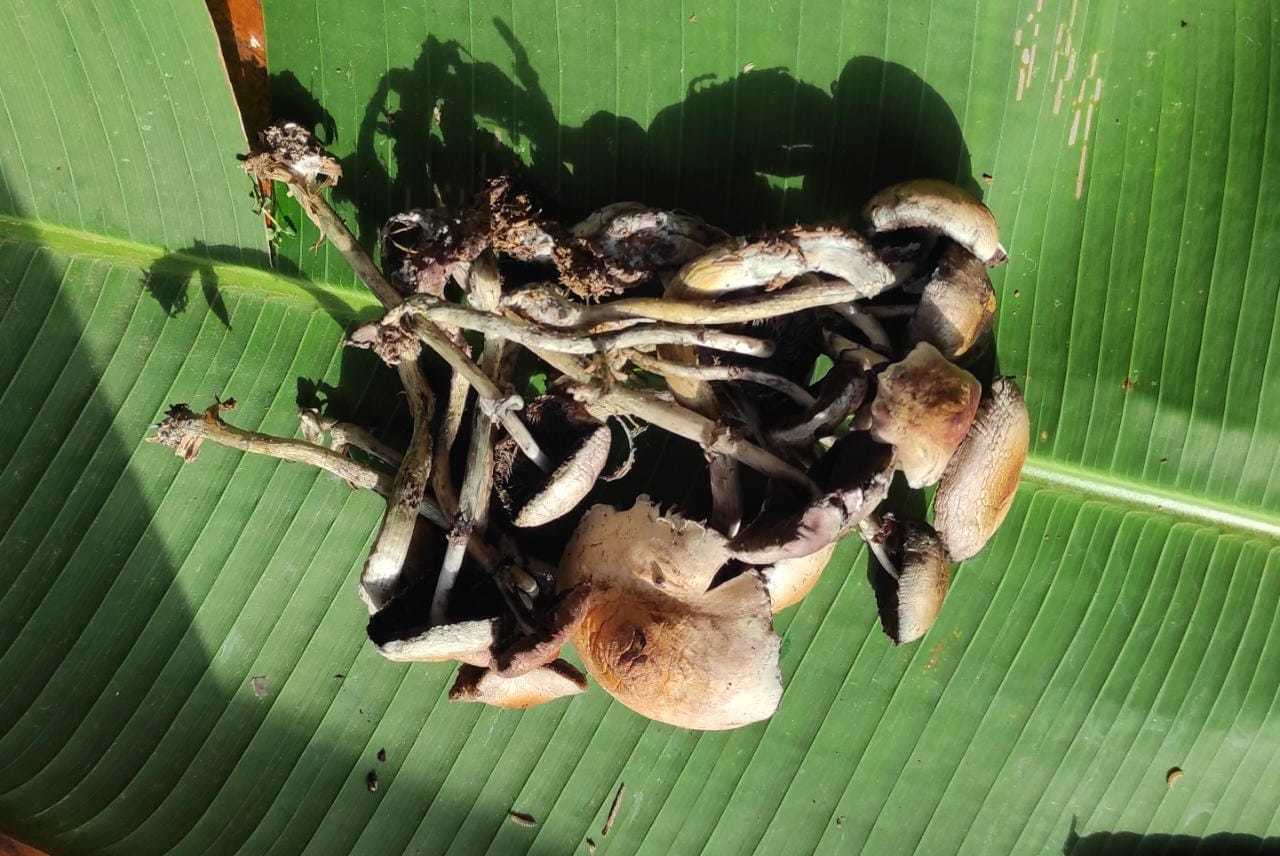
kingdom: Fungi
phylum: Basidiomycota
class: Agaricomycetes
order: Agaricales
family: Hymenogastraceae
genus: Psilocybe
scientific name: Psilocybe cubensis
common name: Golden brownie
